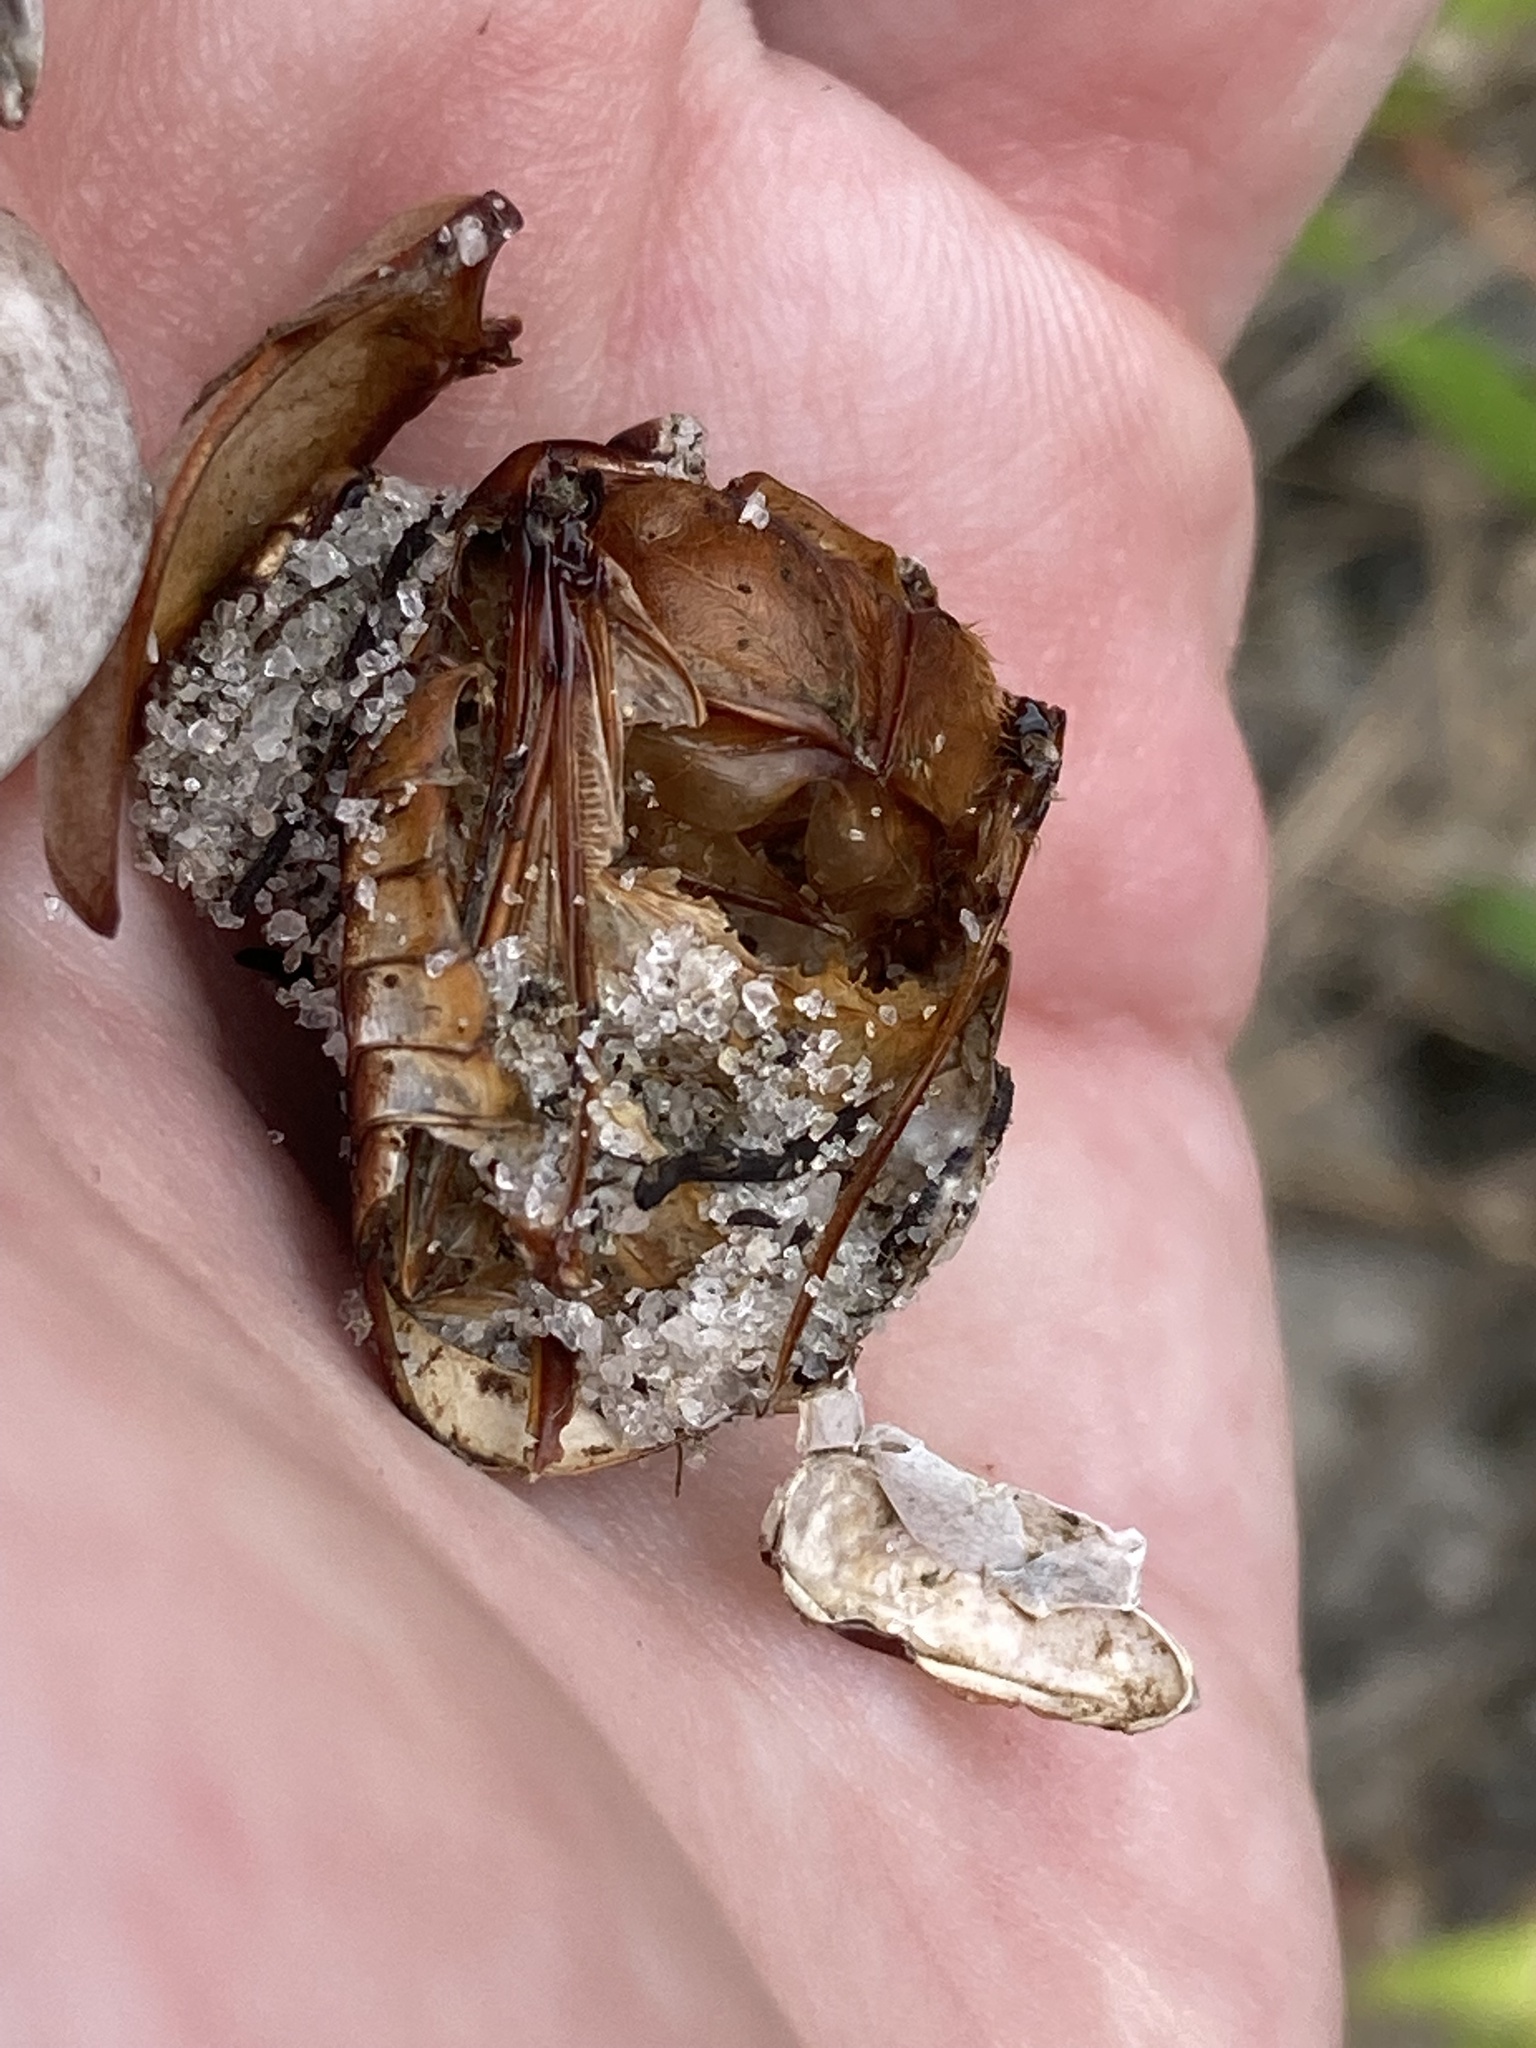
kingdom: Animalia
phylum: Arthropoda
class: Insecta
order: Coleoptera
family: Scarabaeidae
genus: Strategus
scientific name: Strategus antaeus
